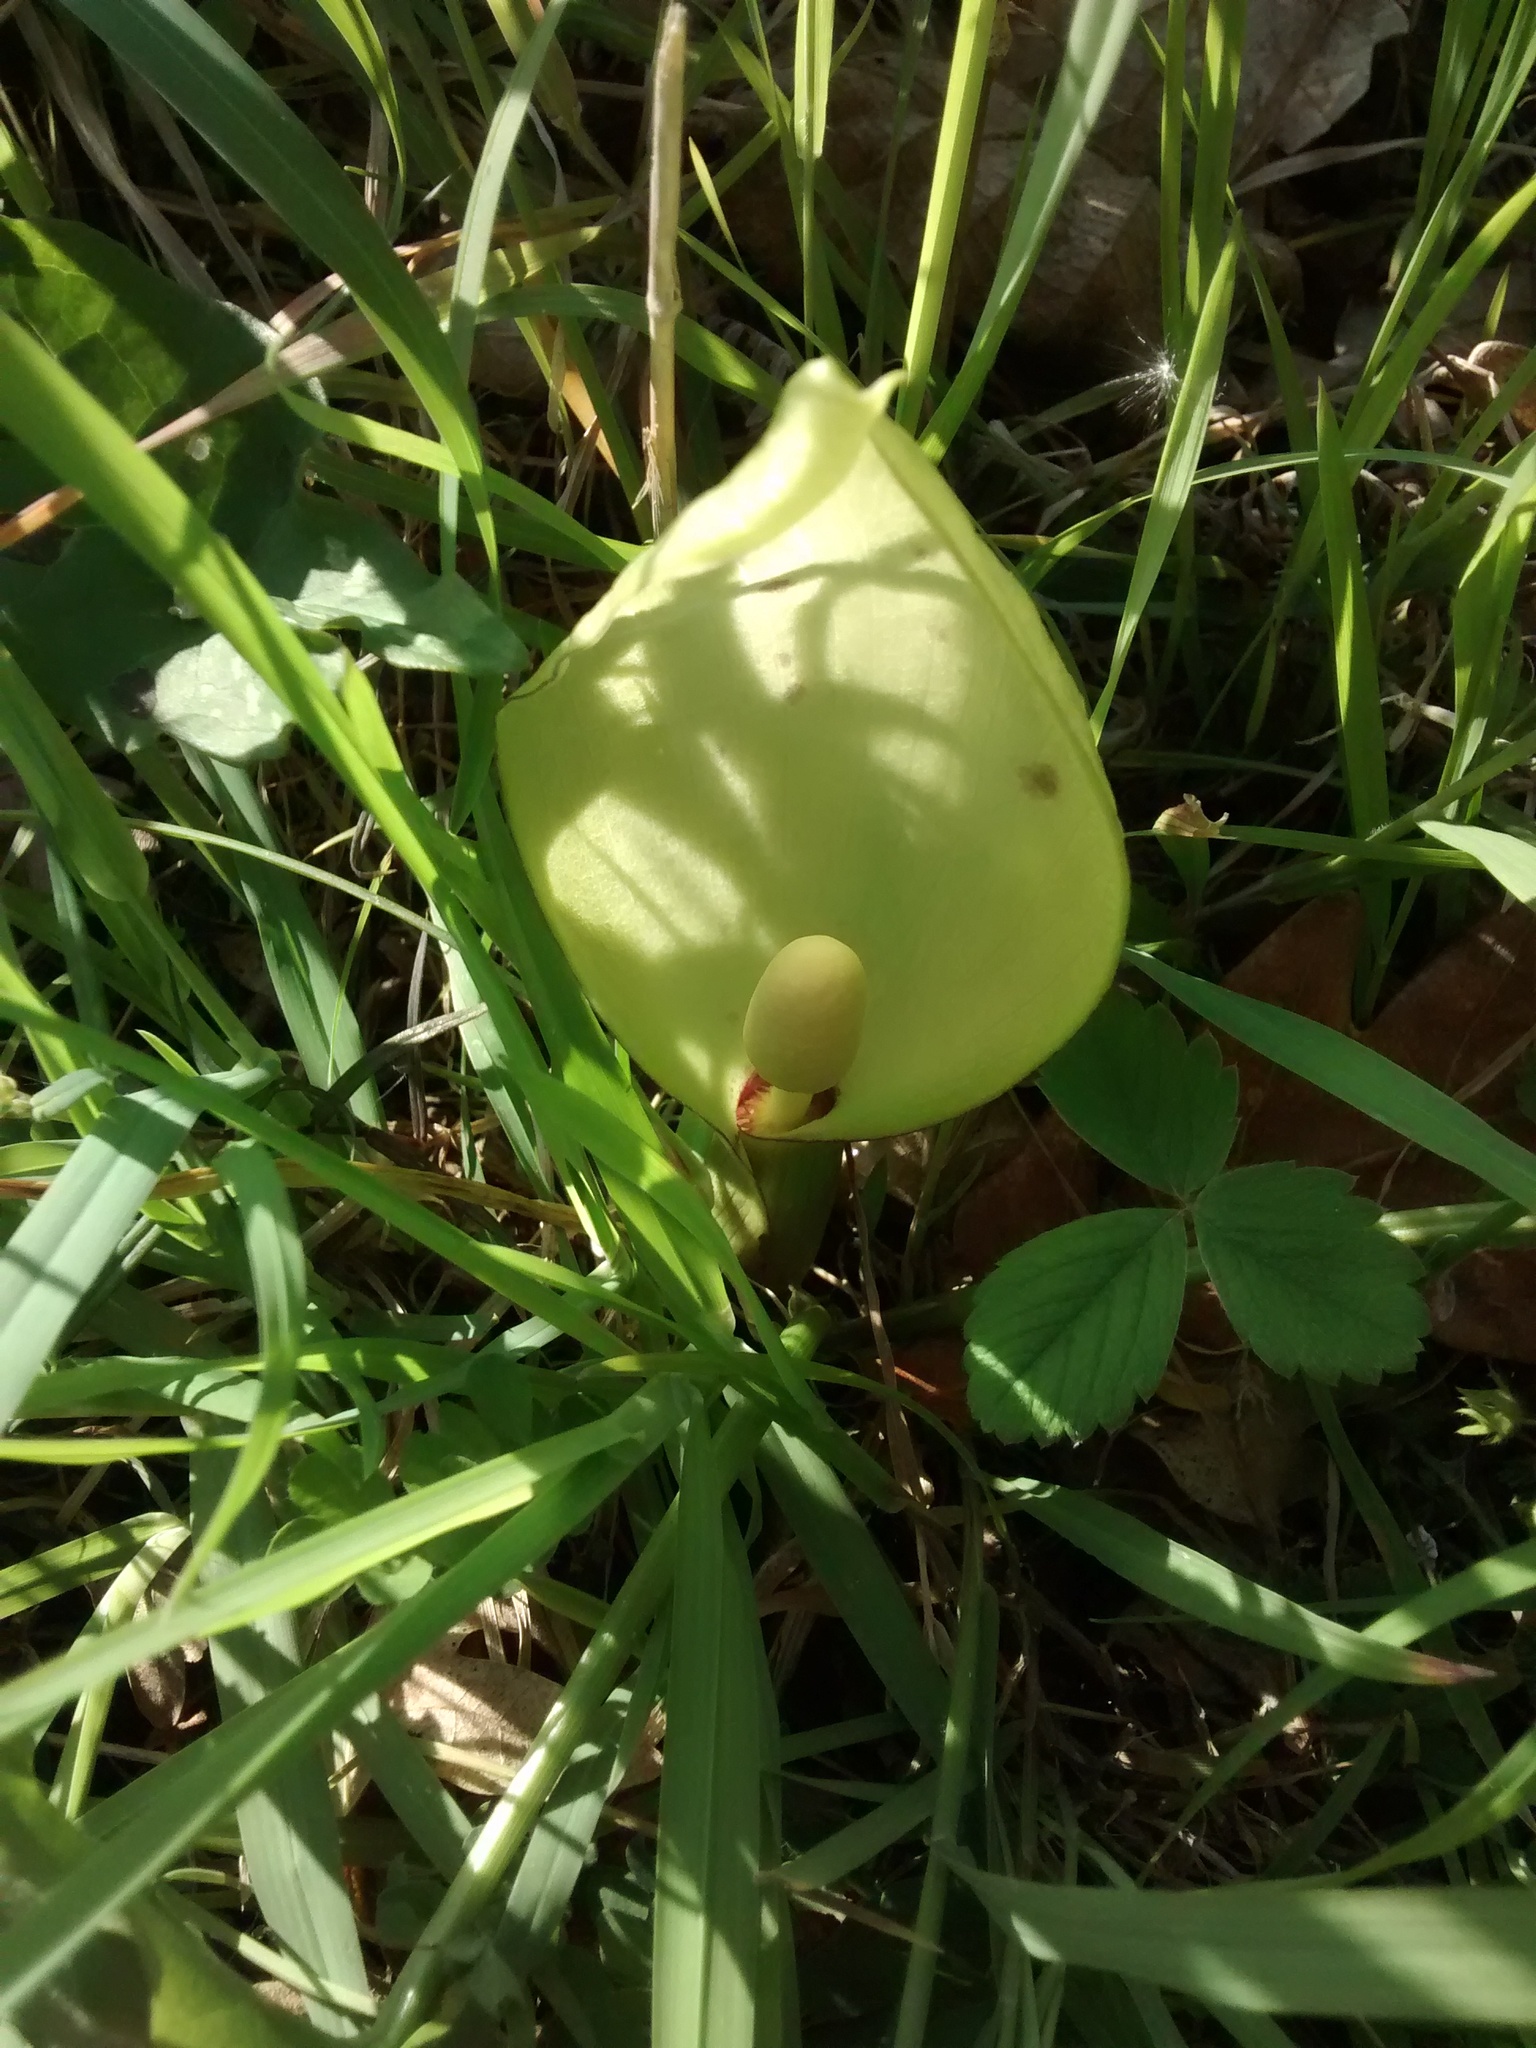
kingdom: Plantae
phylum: Tracheophyta
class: Liliopsida
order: Alismatales
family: Araceae
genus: Arum
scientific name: Arum italicum
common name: Italian lords-and-ladies
